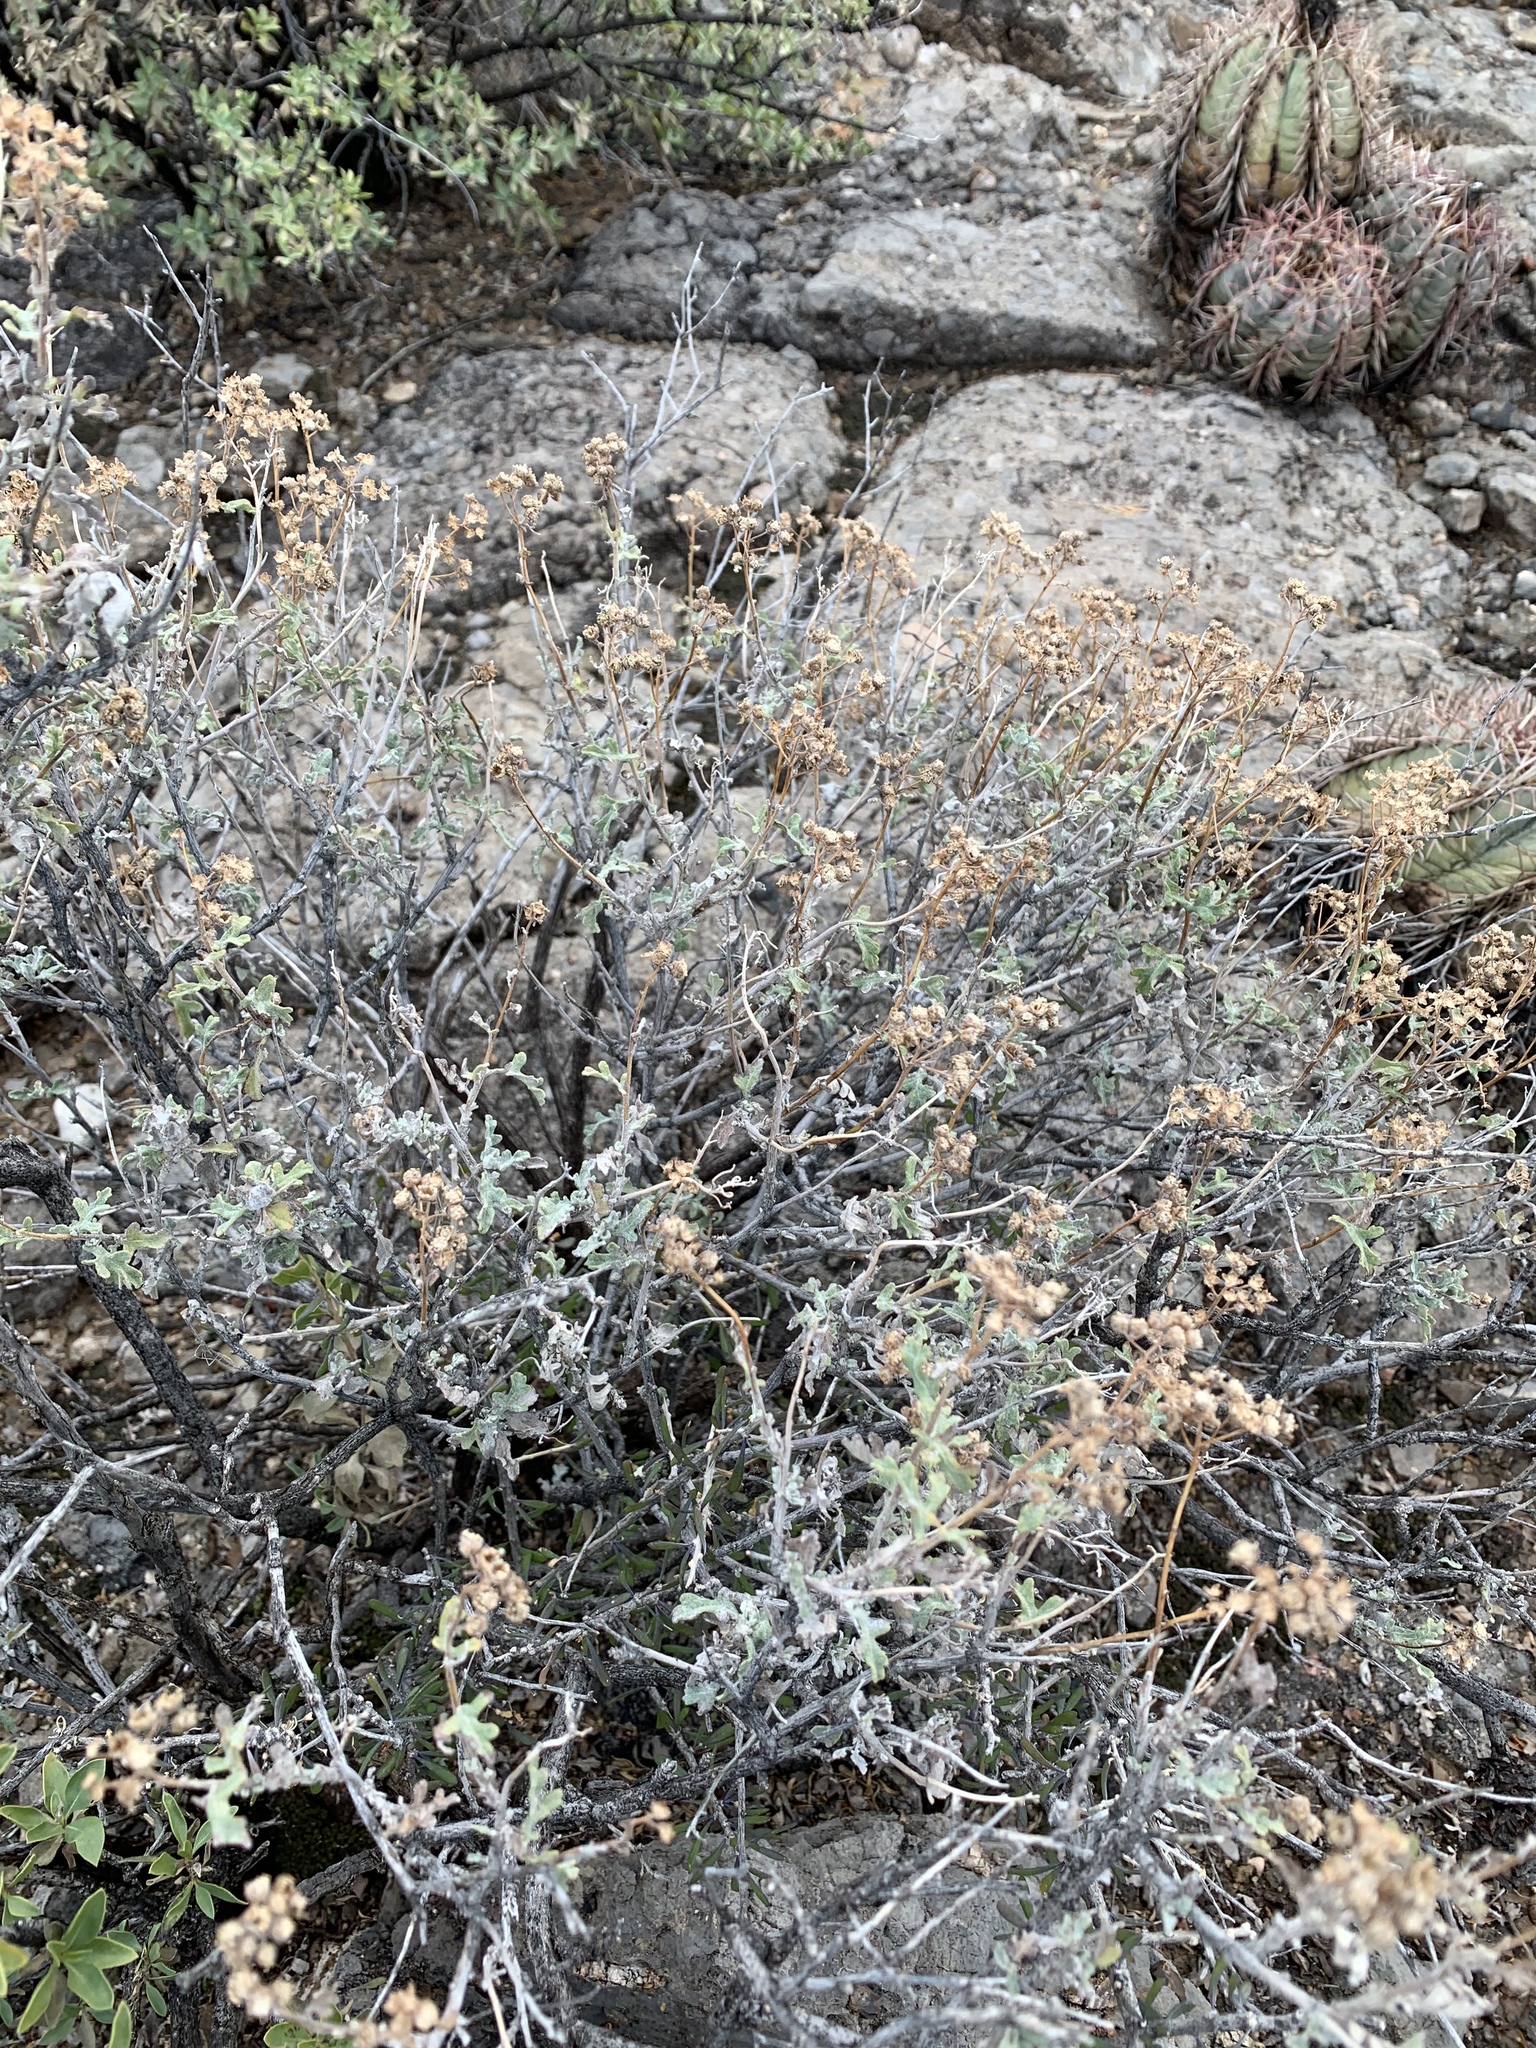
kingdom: Plantae
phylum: Tracheophyta
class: Magnoliopsida
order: Asterales
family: Asteraceae
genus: Parthenium
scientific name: Parthenium incanum
